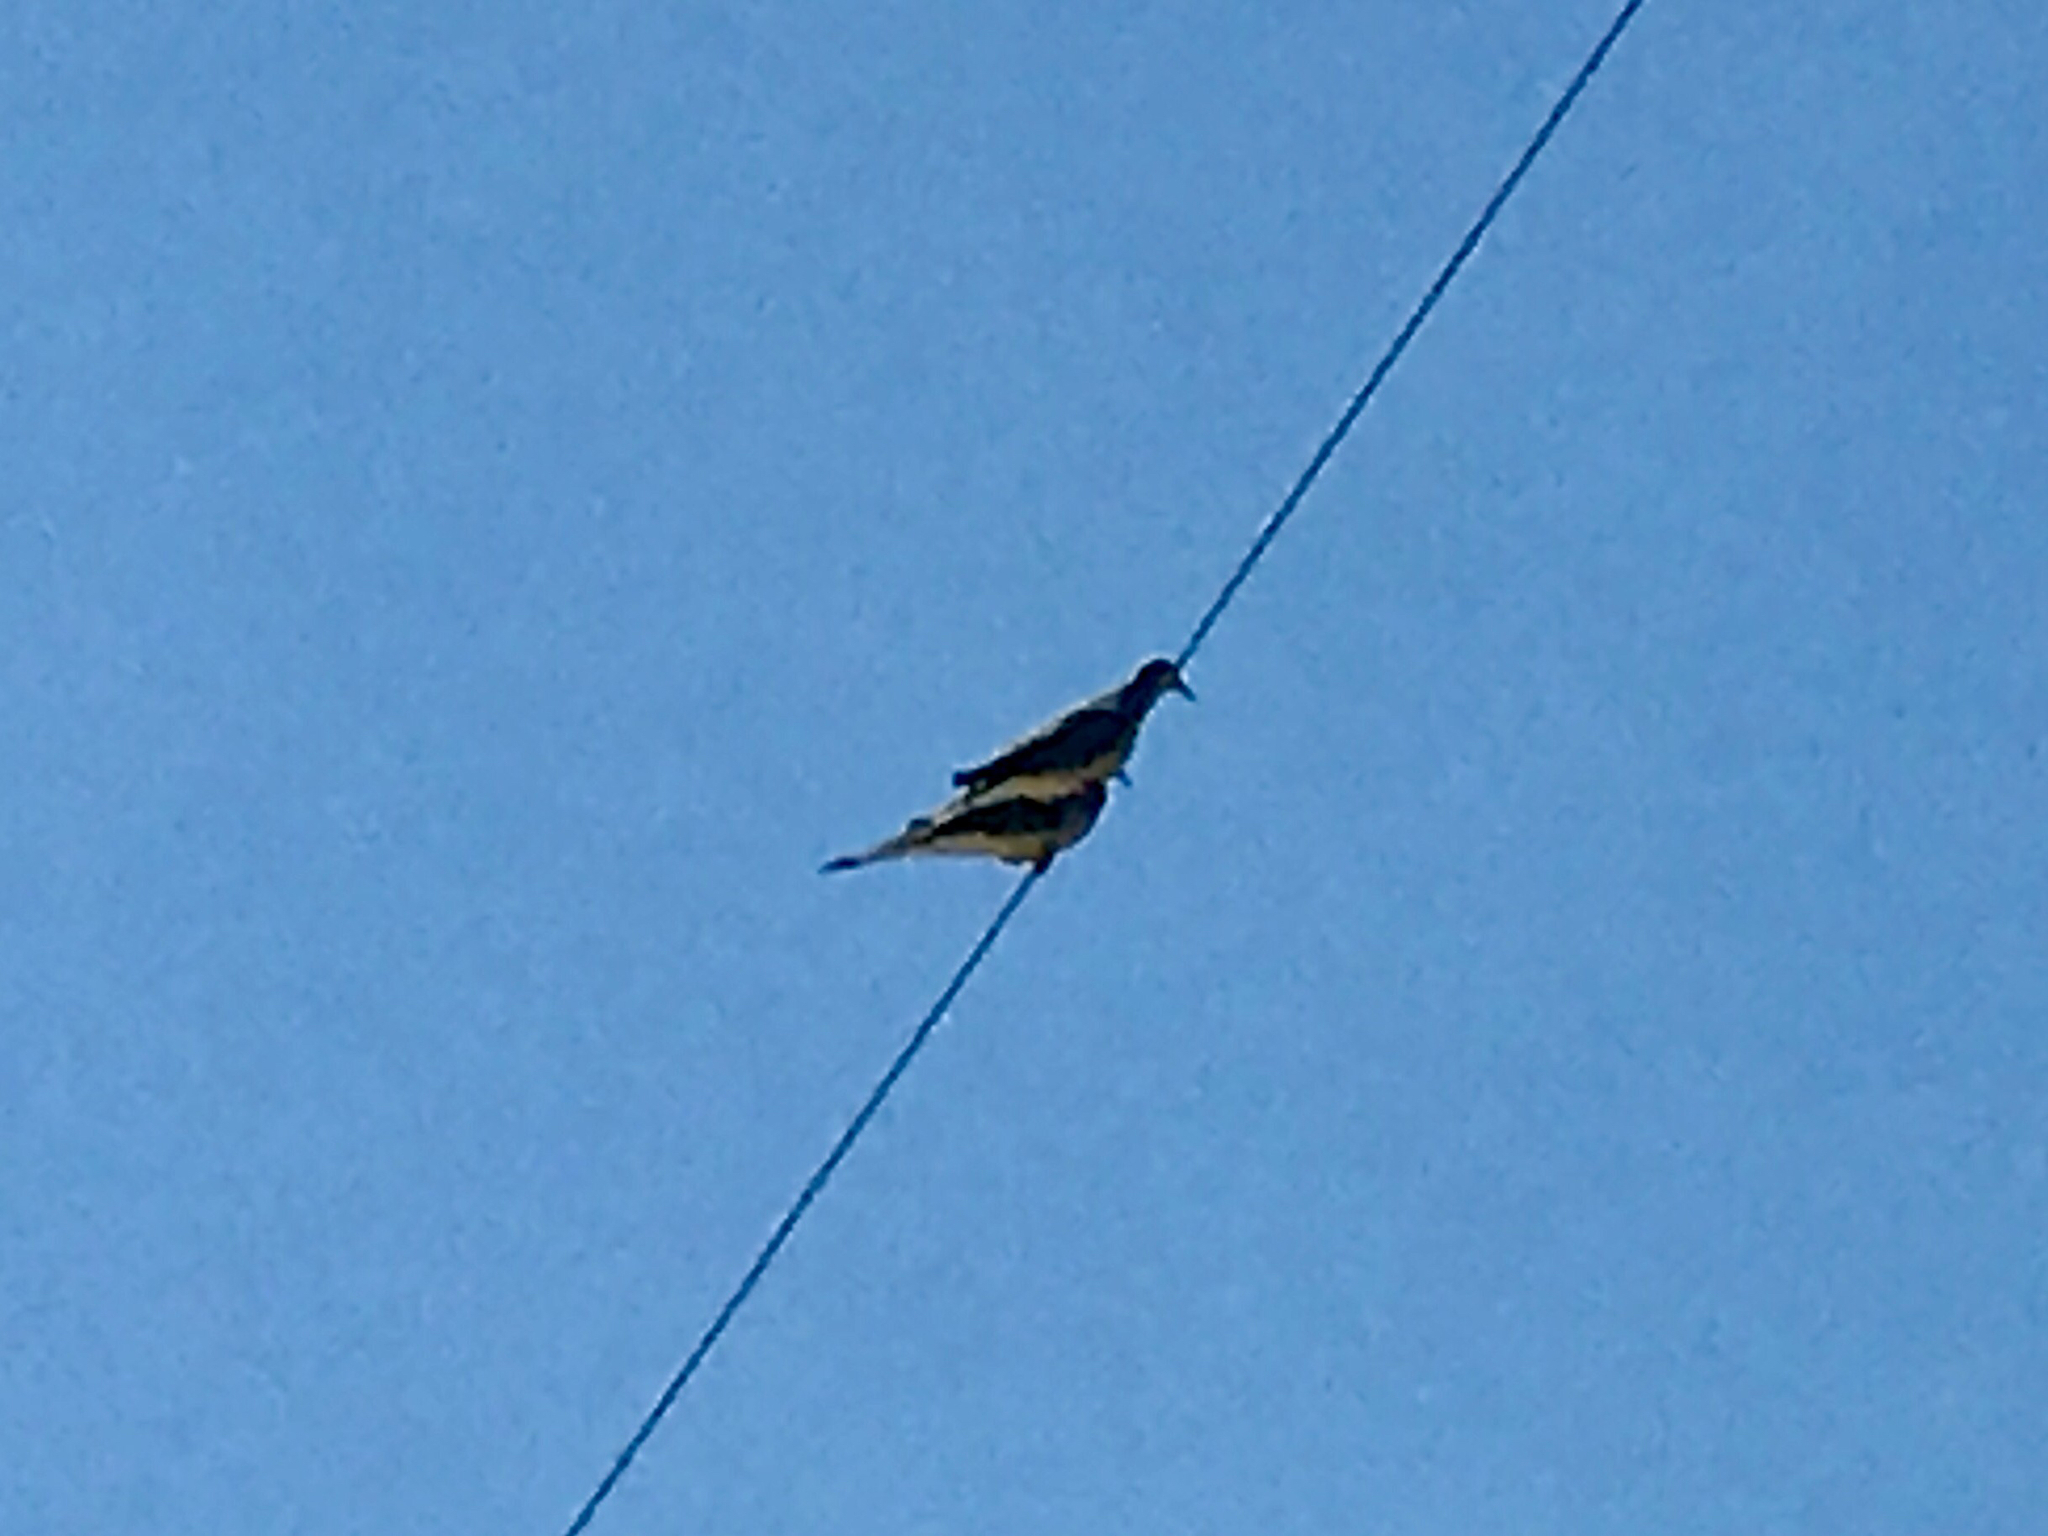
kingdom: Animalia
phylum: Chordata
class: Aves
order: Columbiformes
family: Columbidae
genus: Zenaida
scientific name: Zenaida macroura
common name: Mourning dove
